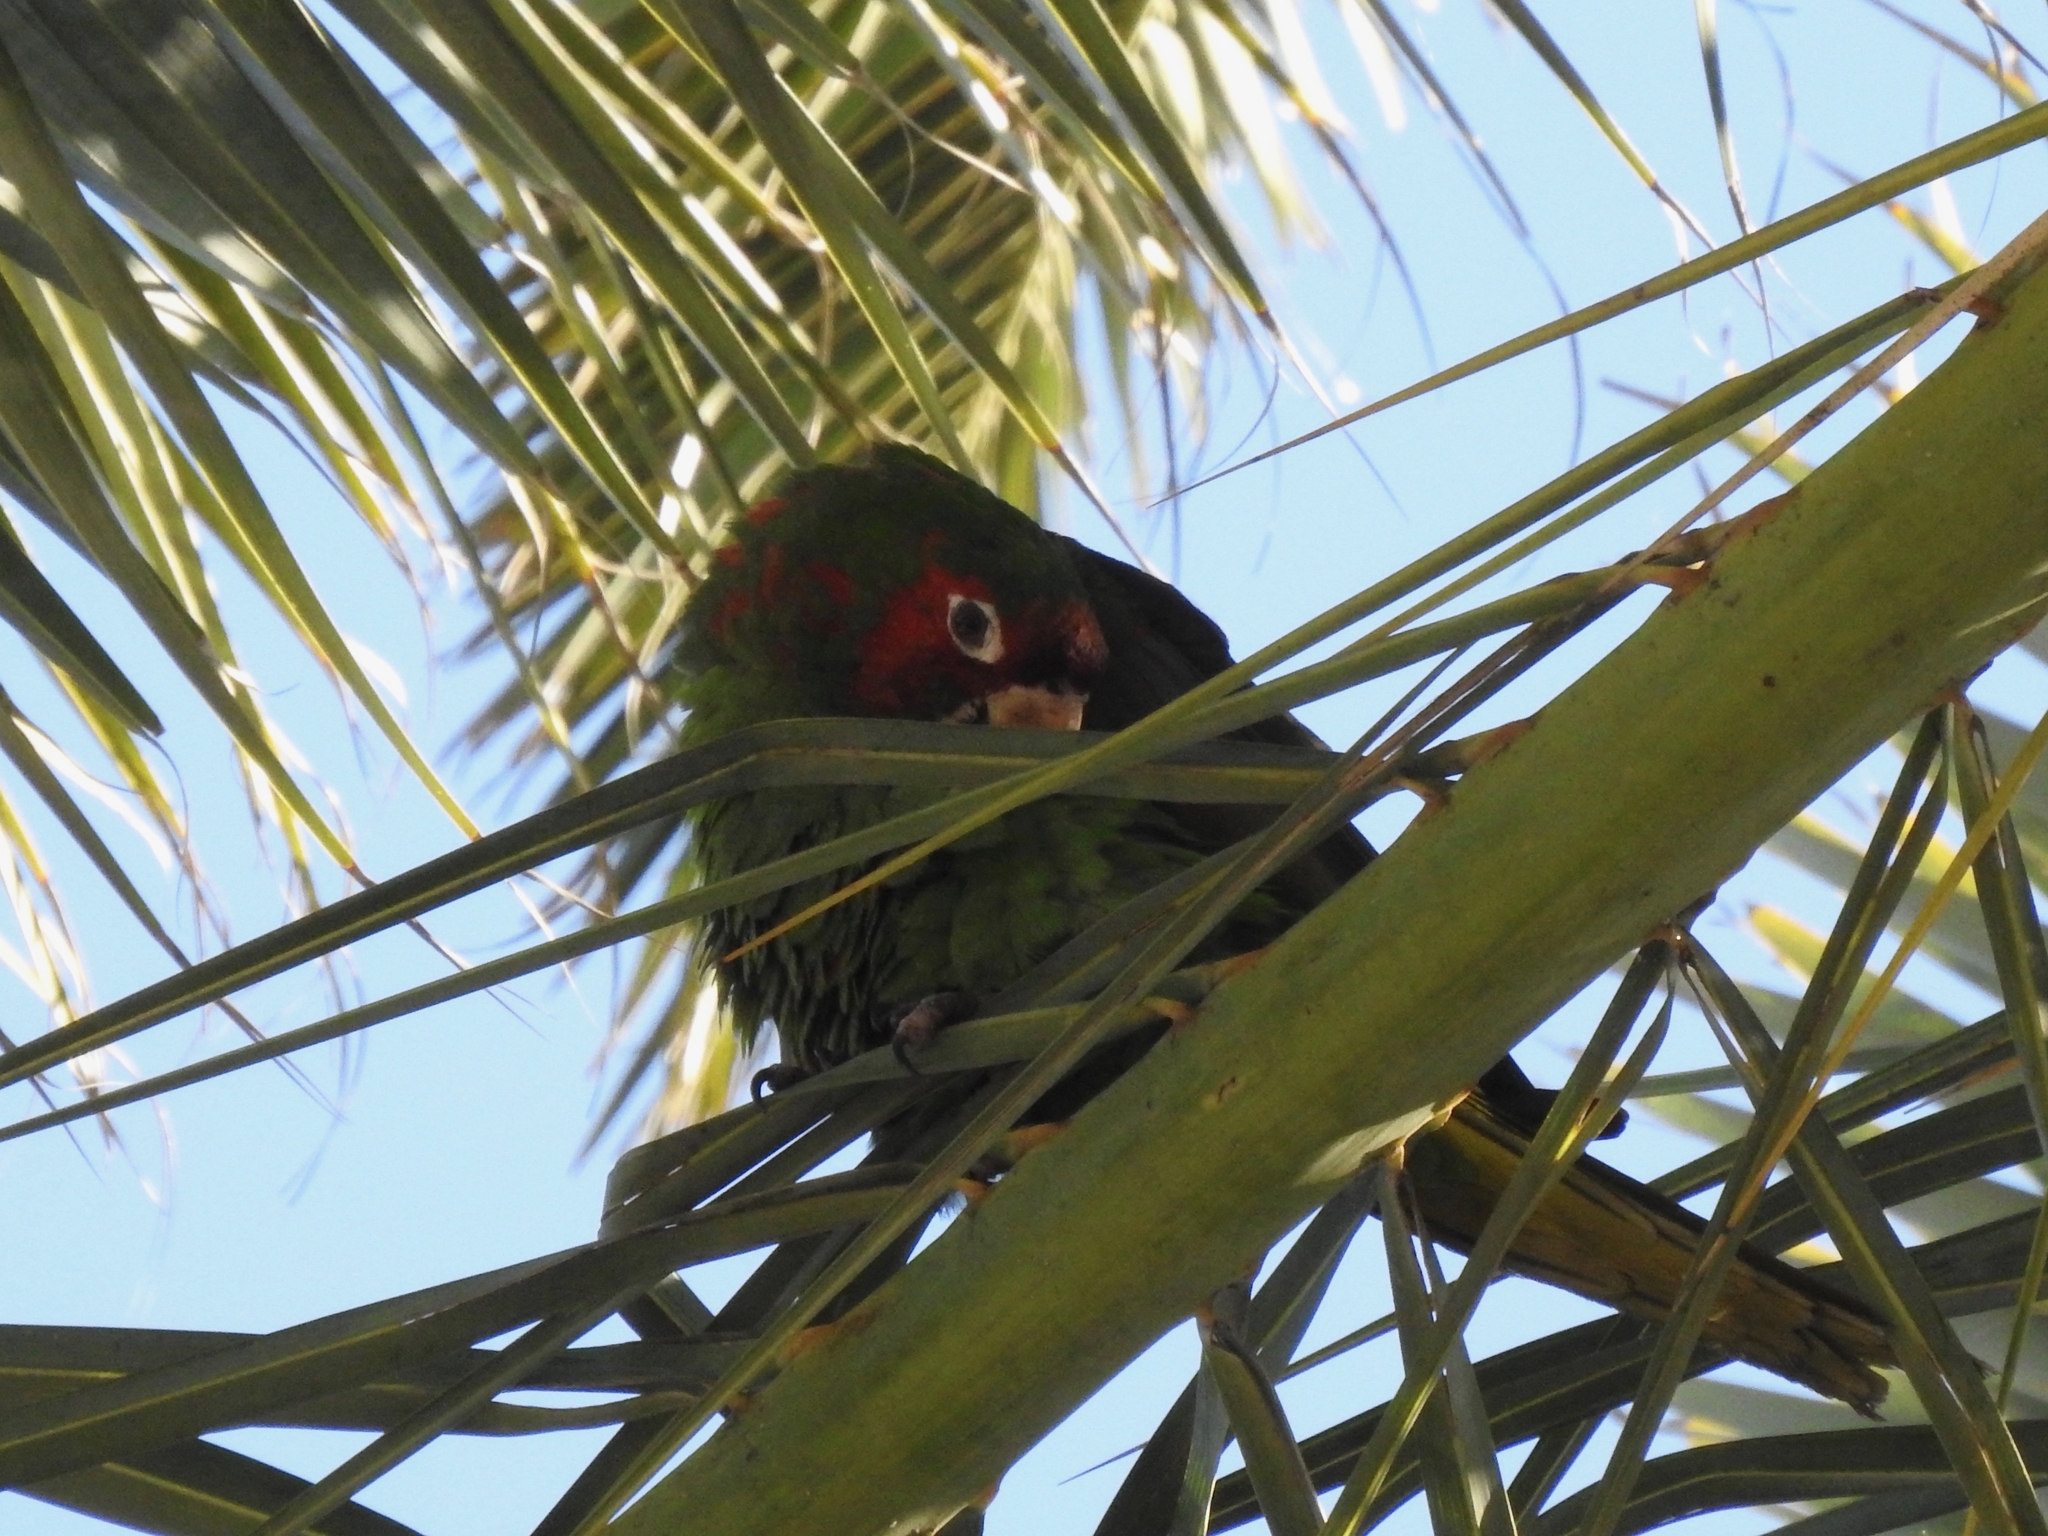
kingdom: Animalia
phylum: Chordata
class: Aves
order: Psittaciformes
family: Psittacidae
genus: Aratinga
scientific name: Aratinga mitrata
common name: Mitred parakeet
